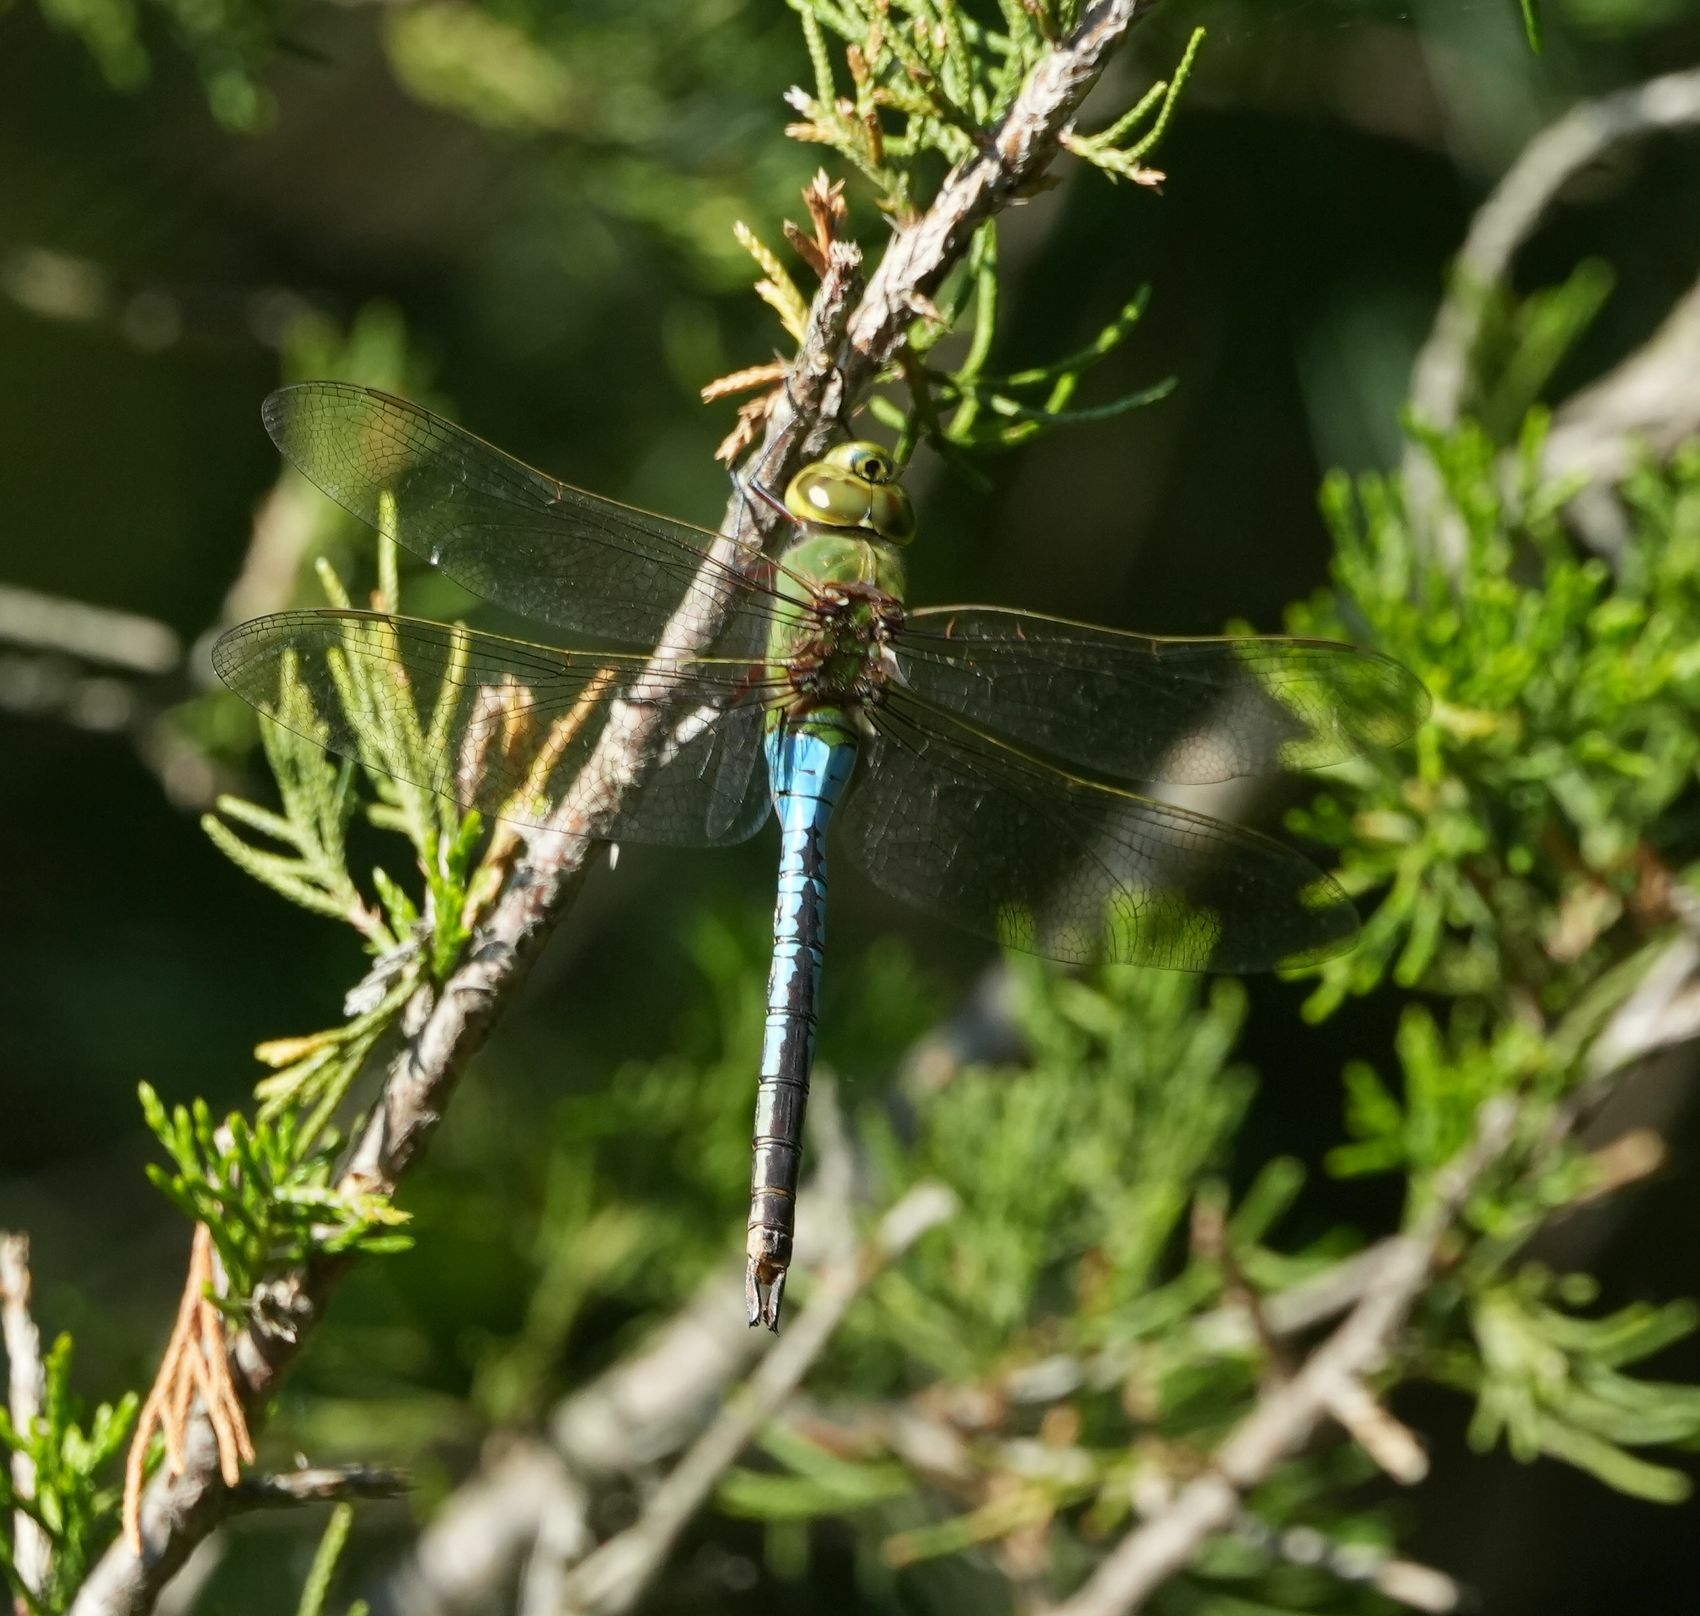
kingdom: Animalia
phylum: Arthropoda
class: Insecta
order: Odonata
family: Aeshnidae
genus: Anax
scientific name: Anax junius
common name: Common green darner
